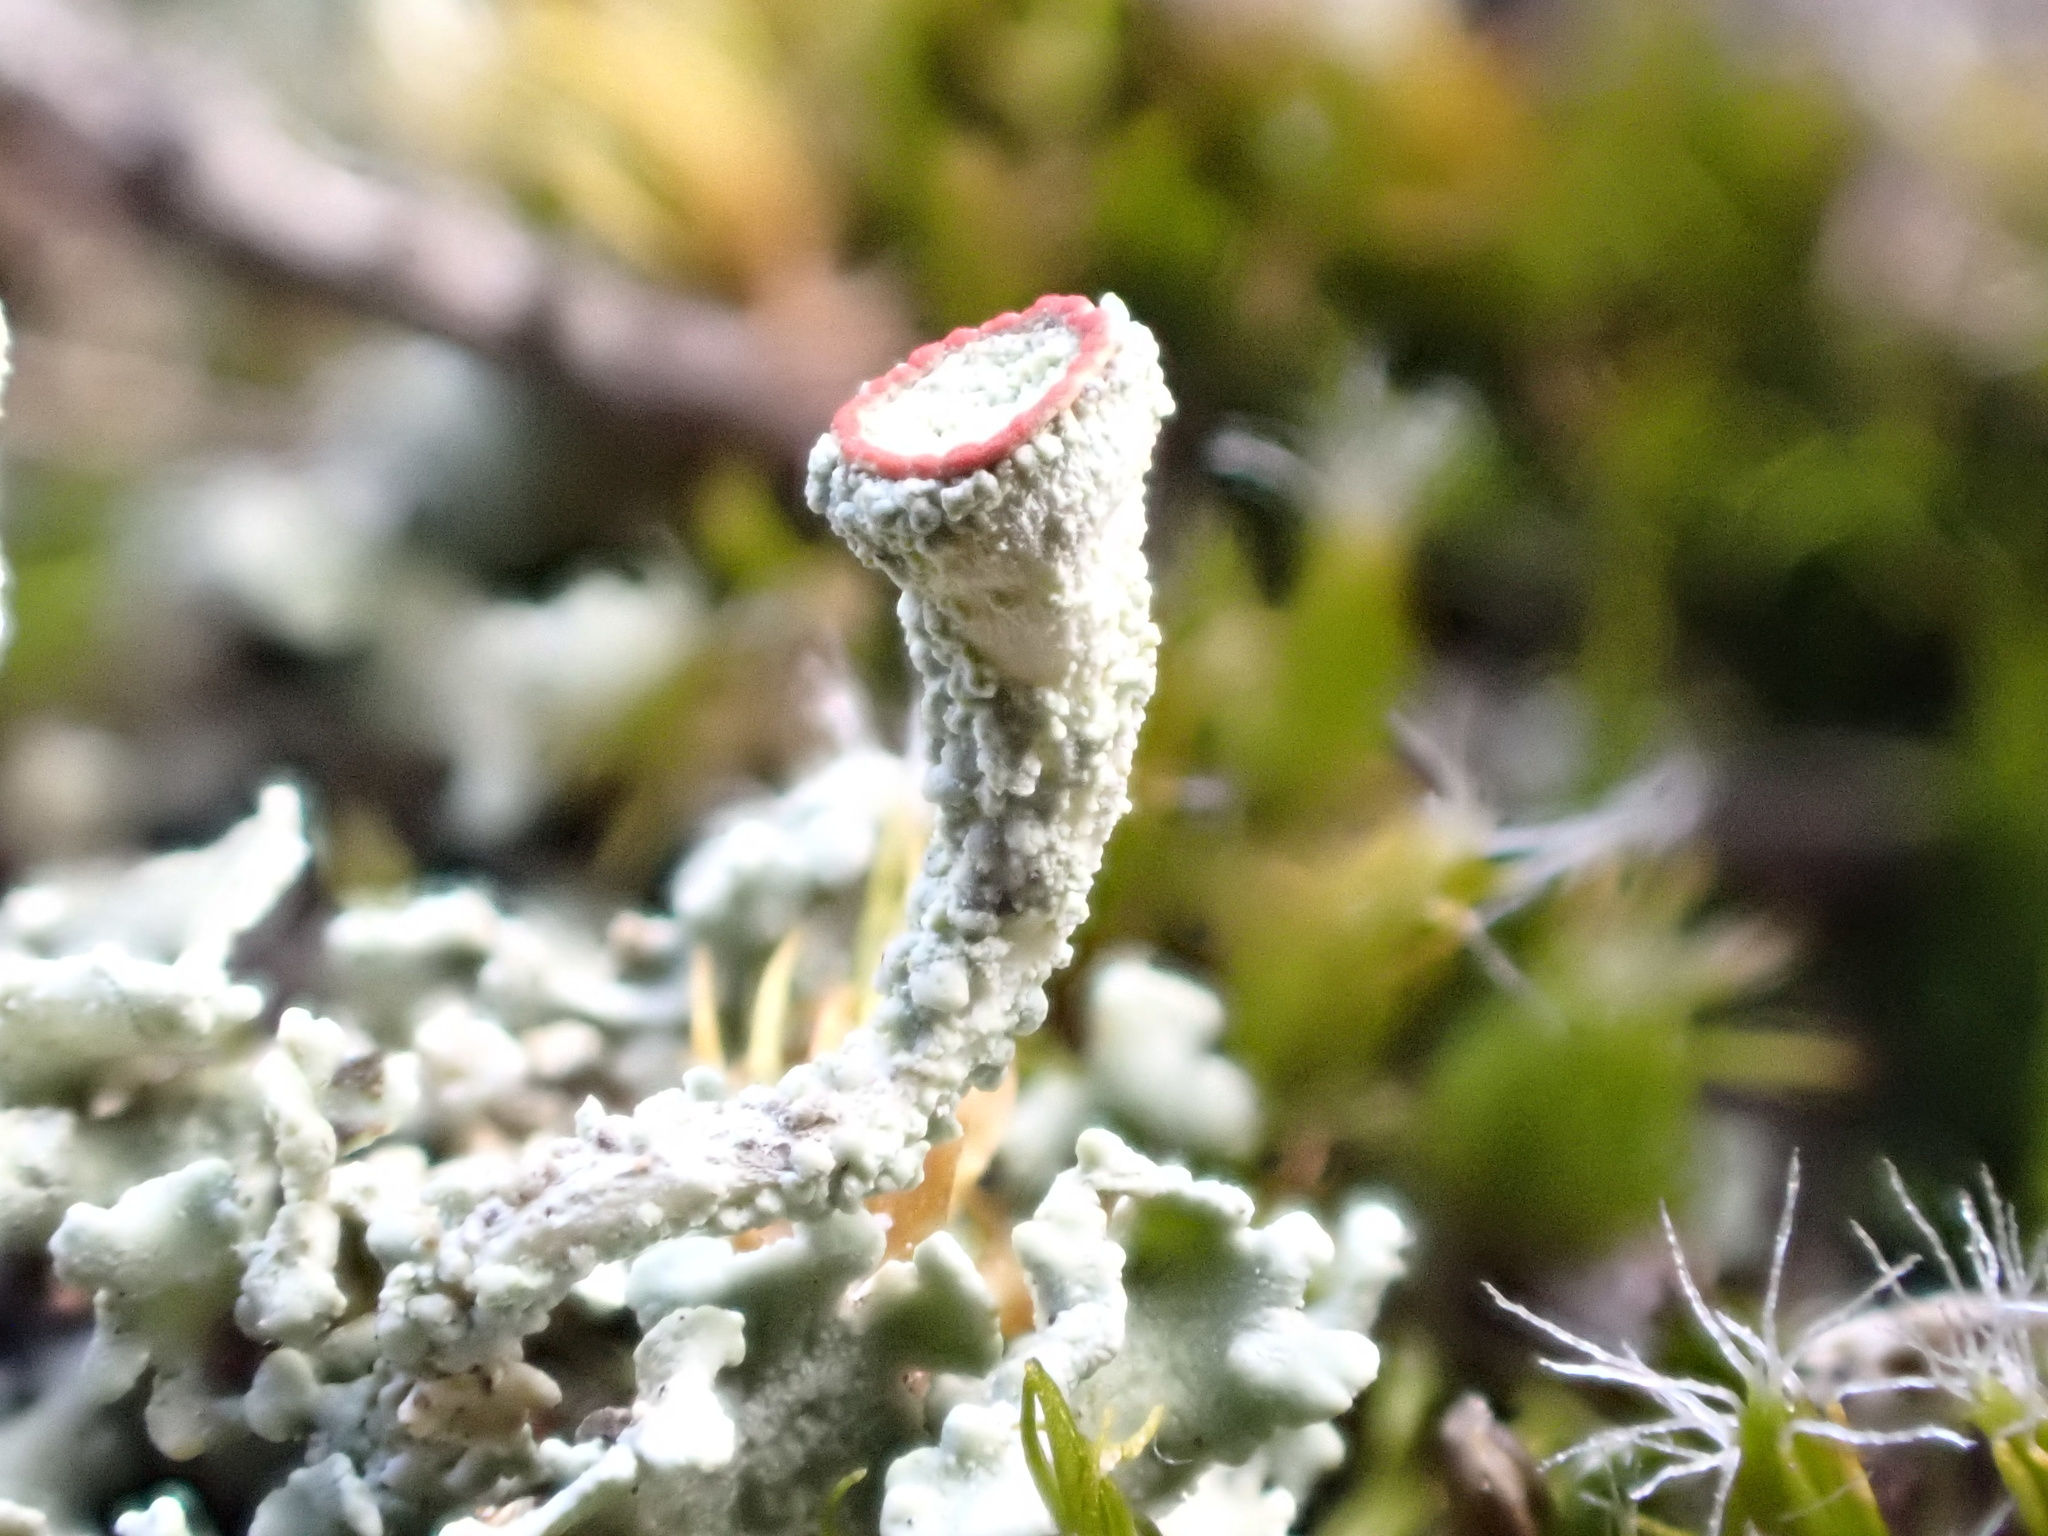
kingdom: Fungi
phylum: Ascomycota
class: Lecanoromycetes
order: Lecanorales
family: Cladoniaceae
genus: Cladonia
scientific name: Cladonia coccifera
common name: Scarlet-cup lichen
